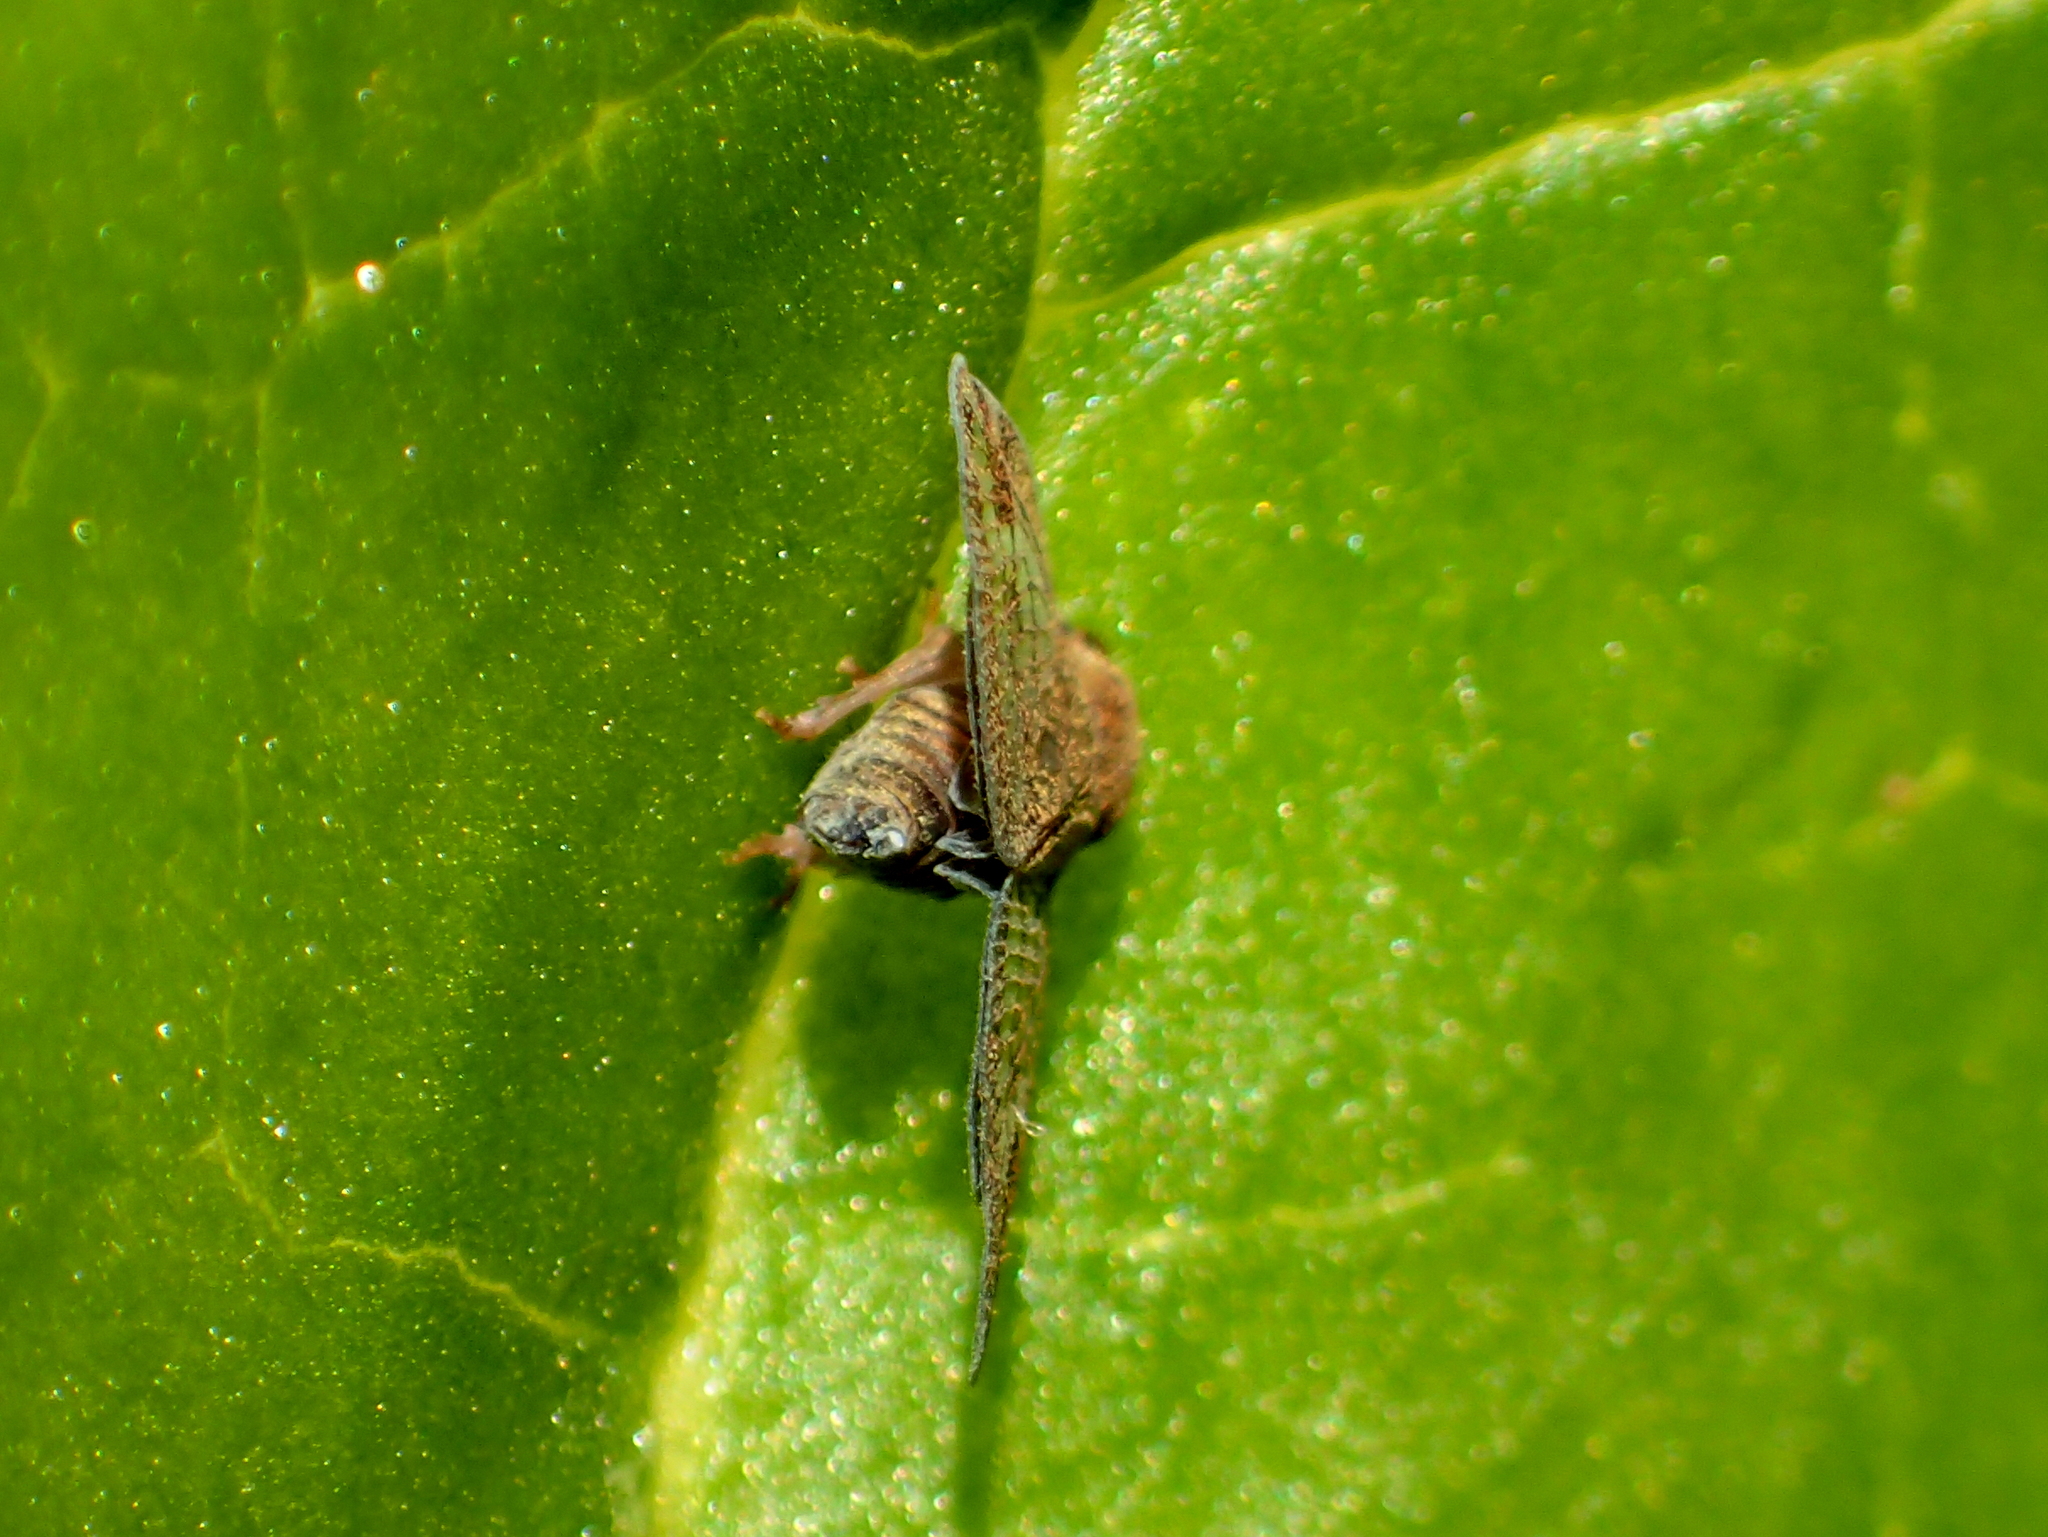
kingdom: Animalia
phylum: Arthropoda
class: Insecta
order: Hemiptera
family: Ricaniidae
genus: Scolypopa
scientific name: Scolypopa australis
